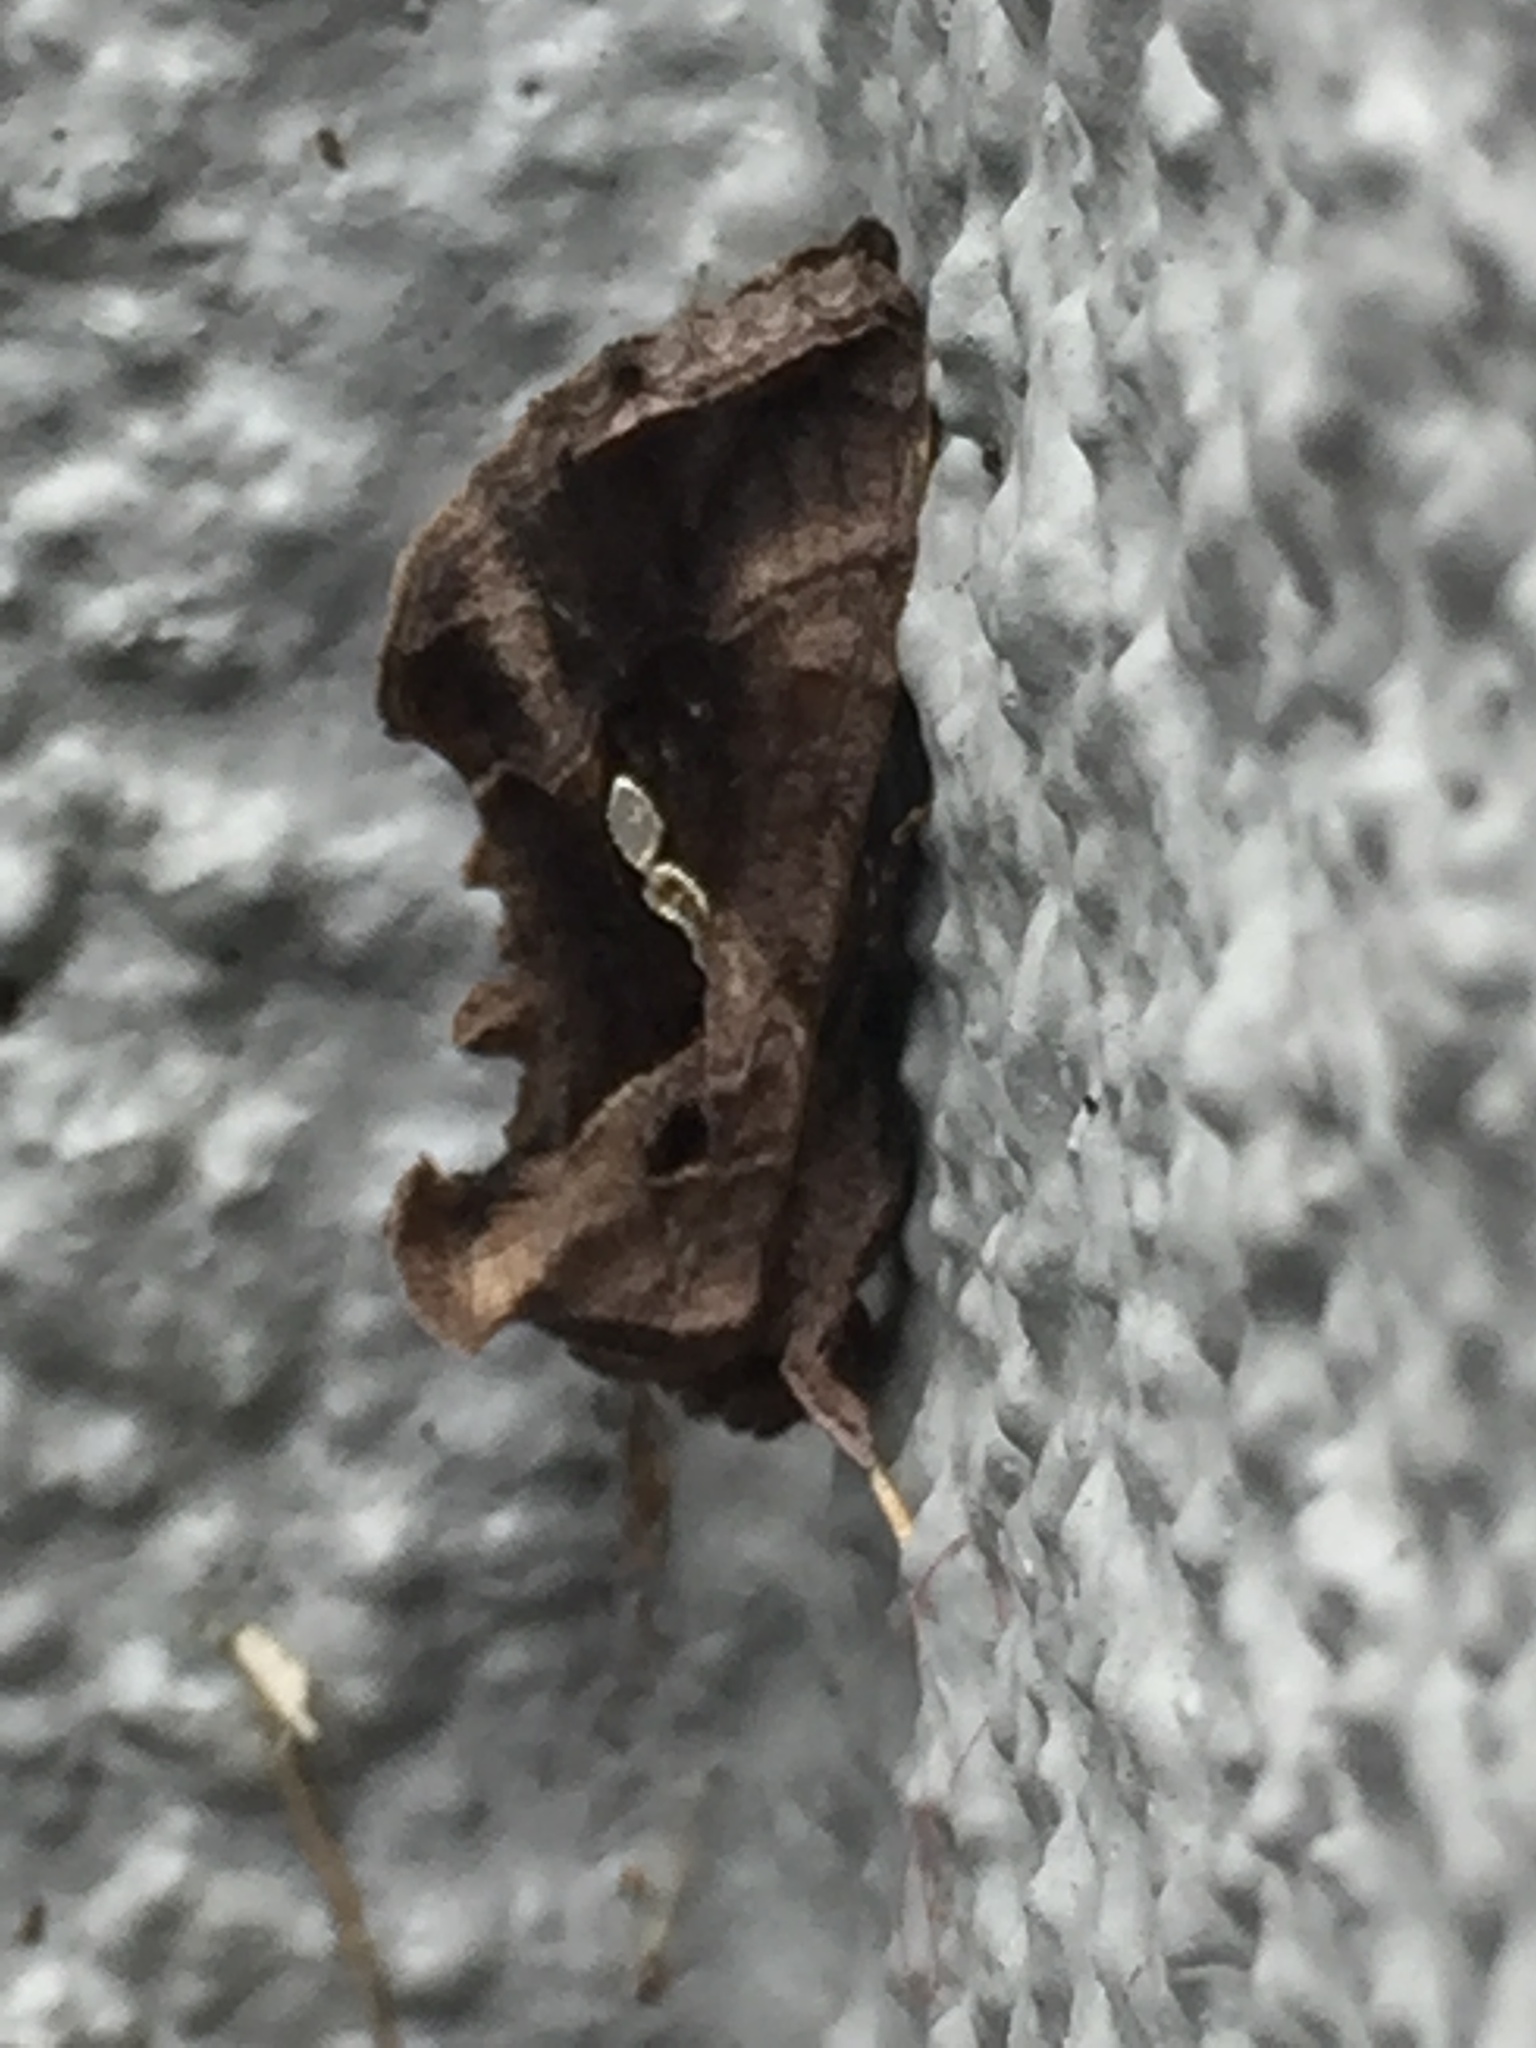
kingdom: Animalia
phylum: Arthropoda
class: Insecta
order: Lepidoptera
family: Noctuidae
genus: Chrysodeixis
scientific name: Chrysodeixis eriosoma
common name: Green garden looper
